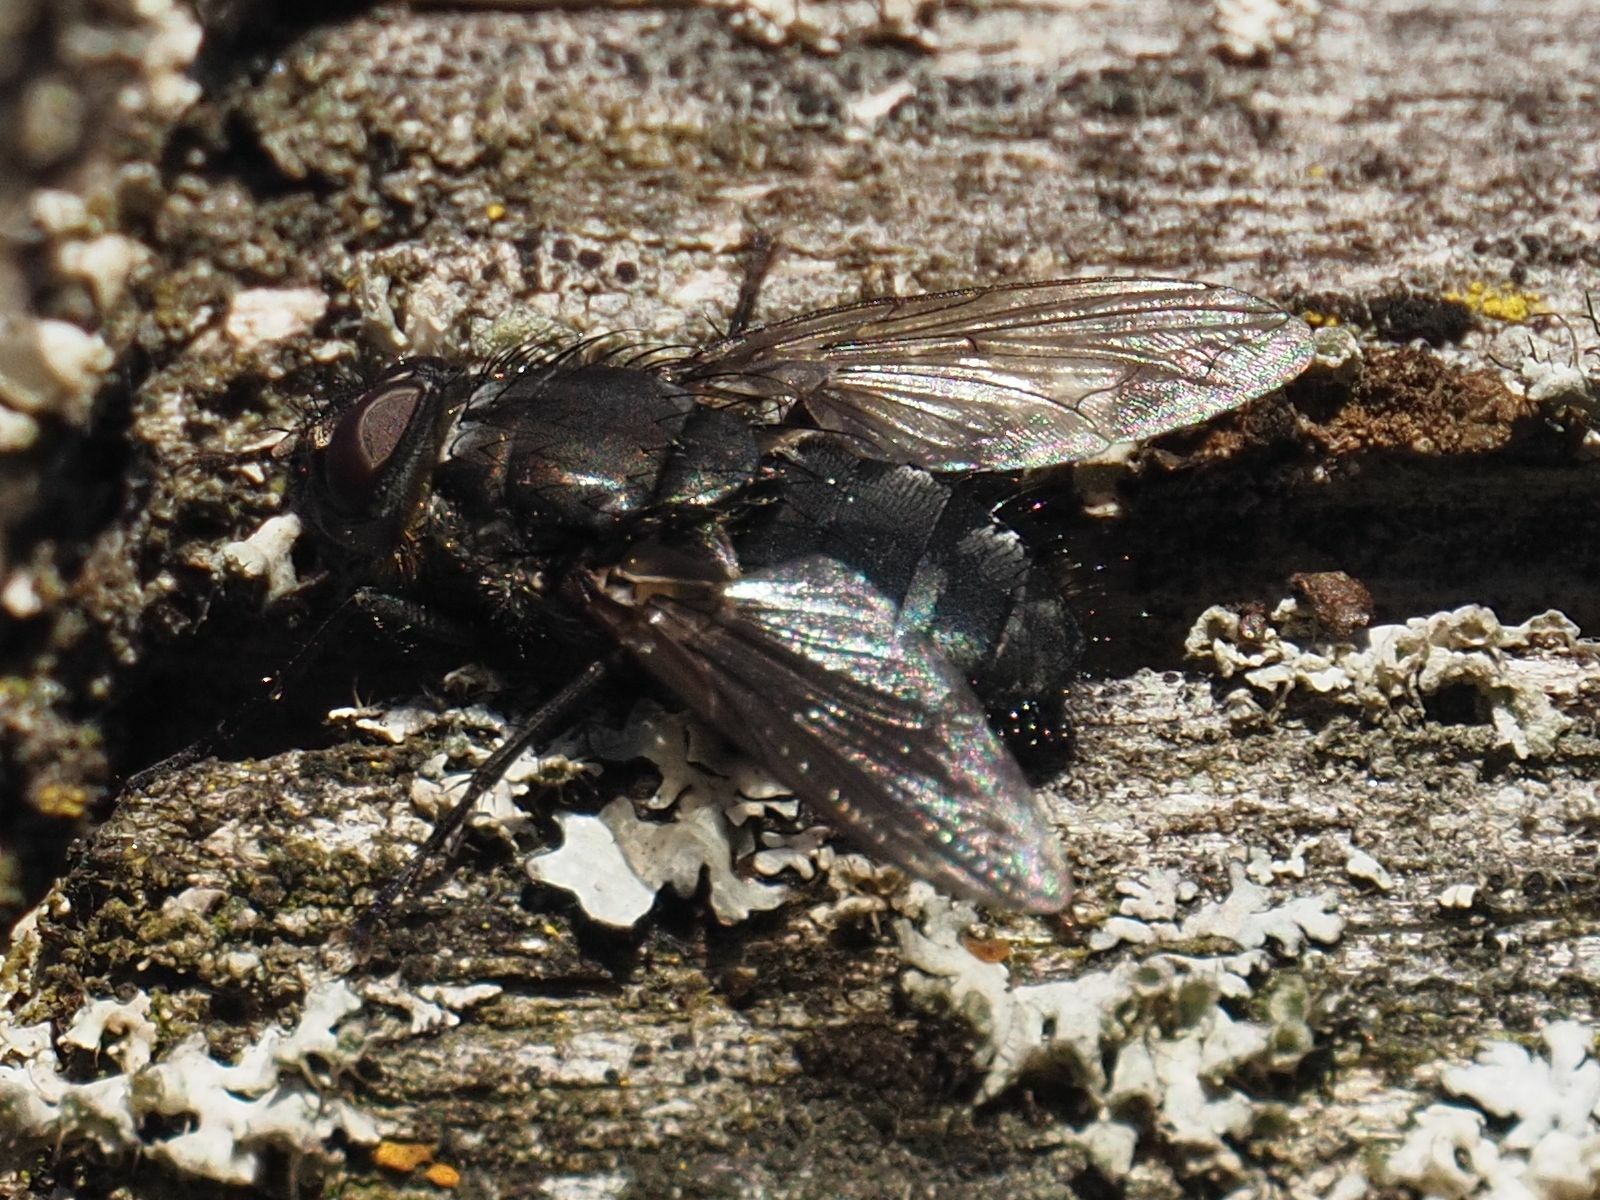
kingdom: Animalia
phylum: Arthropoda
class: Insecta
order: Diptera
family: Polleniidae
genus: Pollenia
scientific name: Pollenia vagabunda
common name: Vagabund cluster fly
